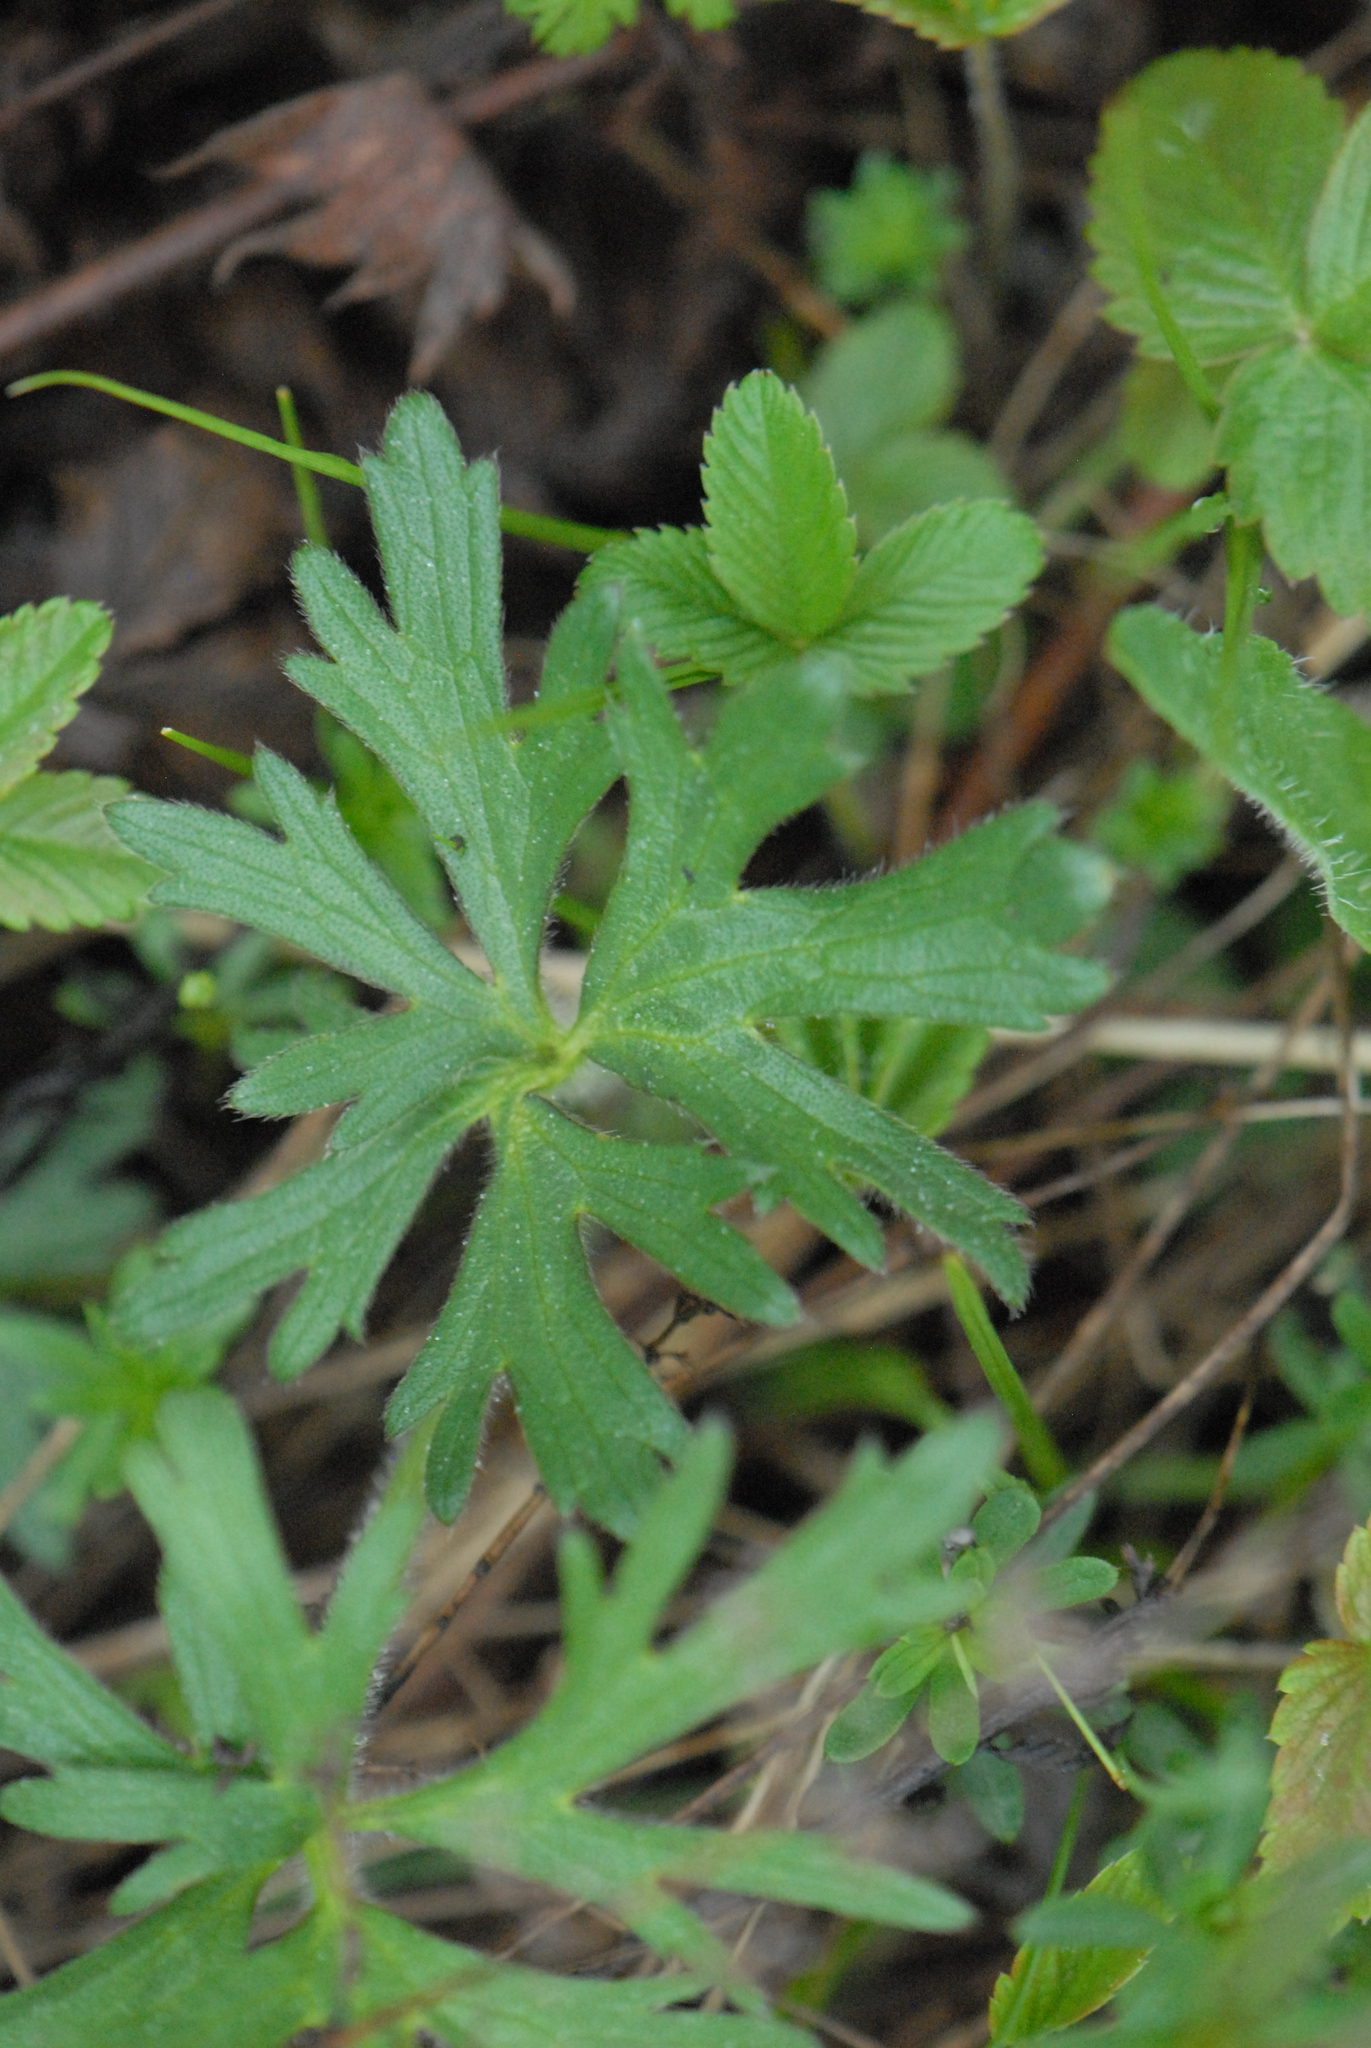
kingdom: Plantae
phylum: Tracheophyta
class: Magnoliopsida
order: Ranunculales
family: Ranunculaceae
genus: Ranunculus
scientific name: Ranunculus polyanthemos
